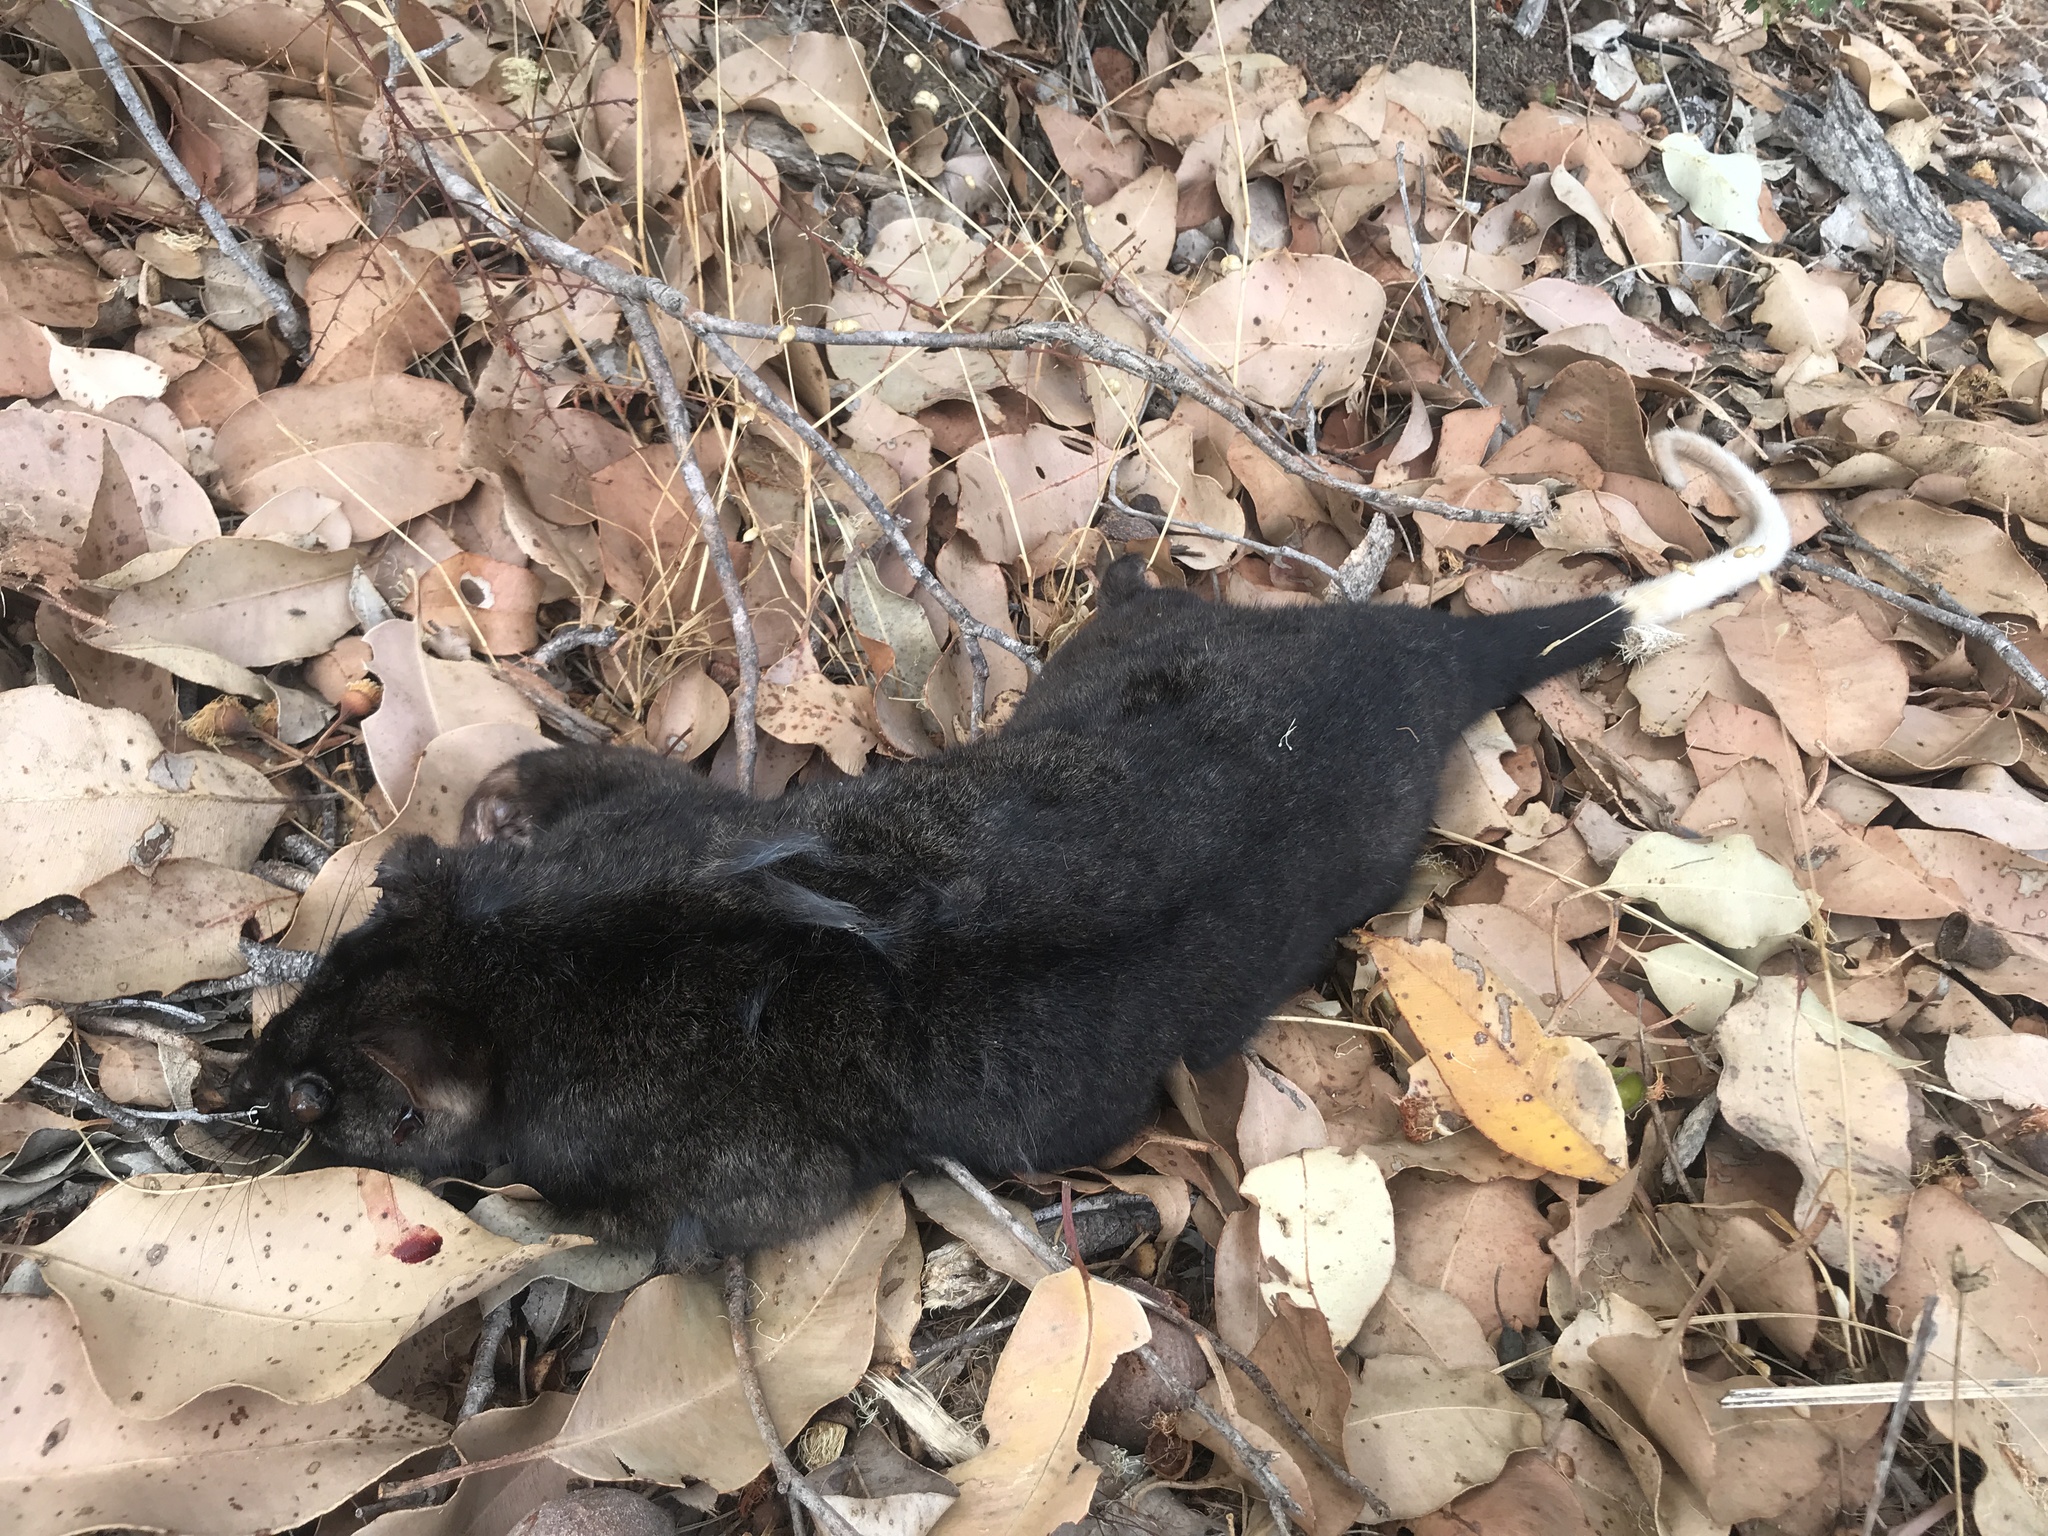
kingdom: Animalia
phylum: Chordata
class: Mammalia
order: Diprotodontia
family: Pseudocheiridae
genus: Pseudocheirus
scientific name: Pseudocheirus peregrinus
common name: Common ringtail possum
